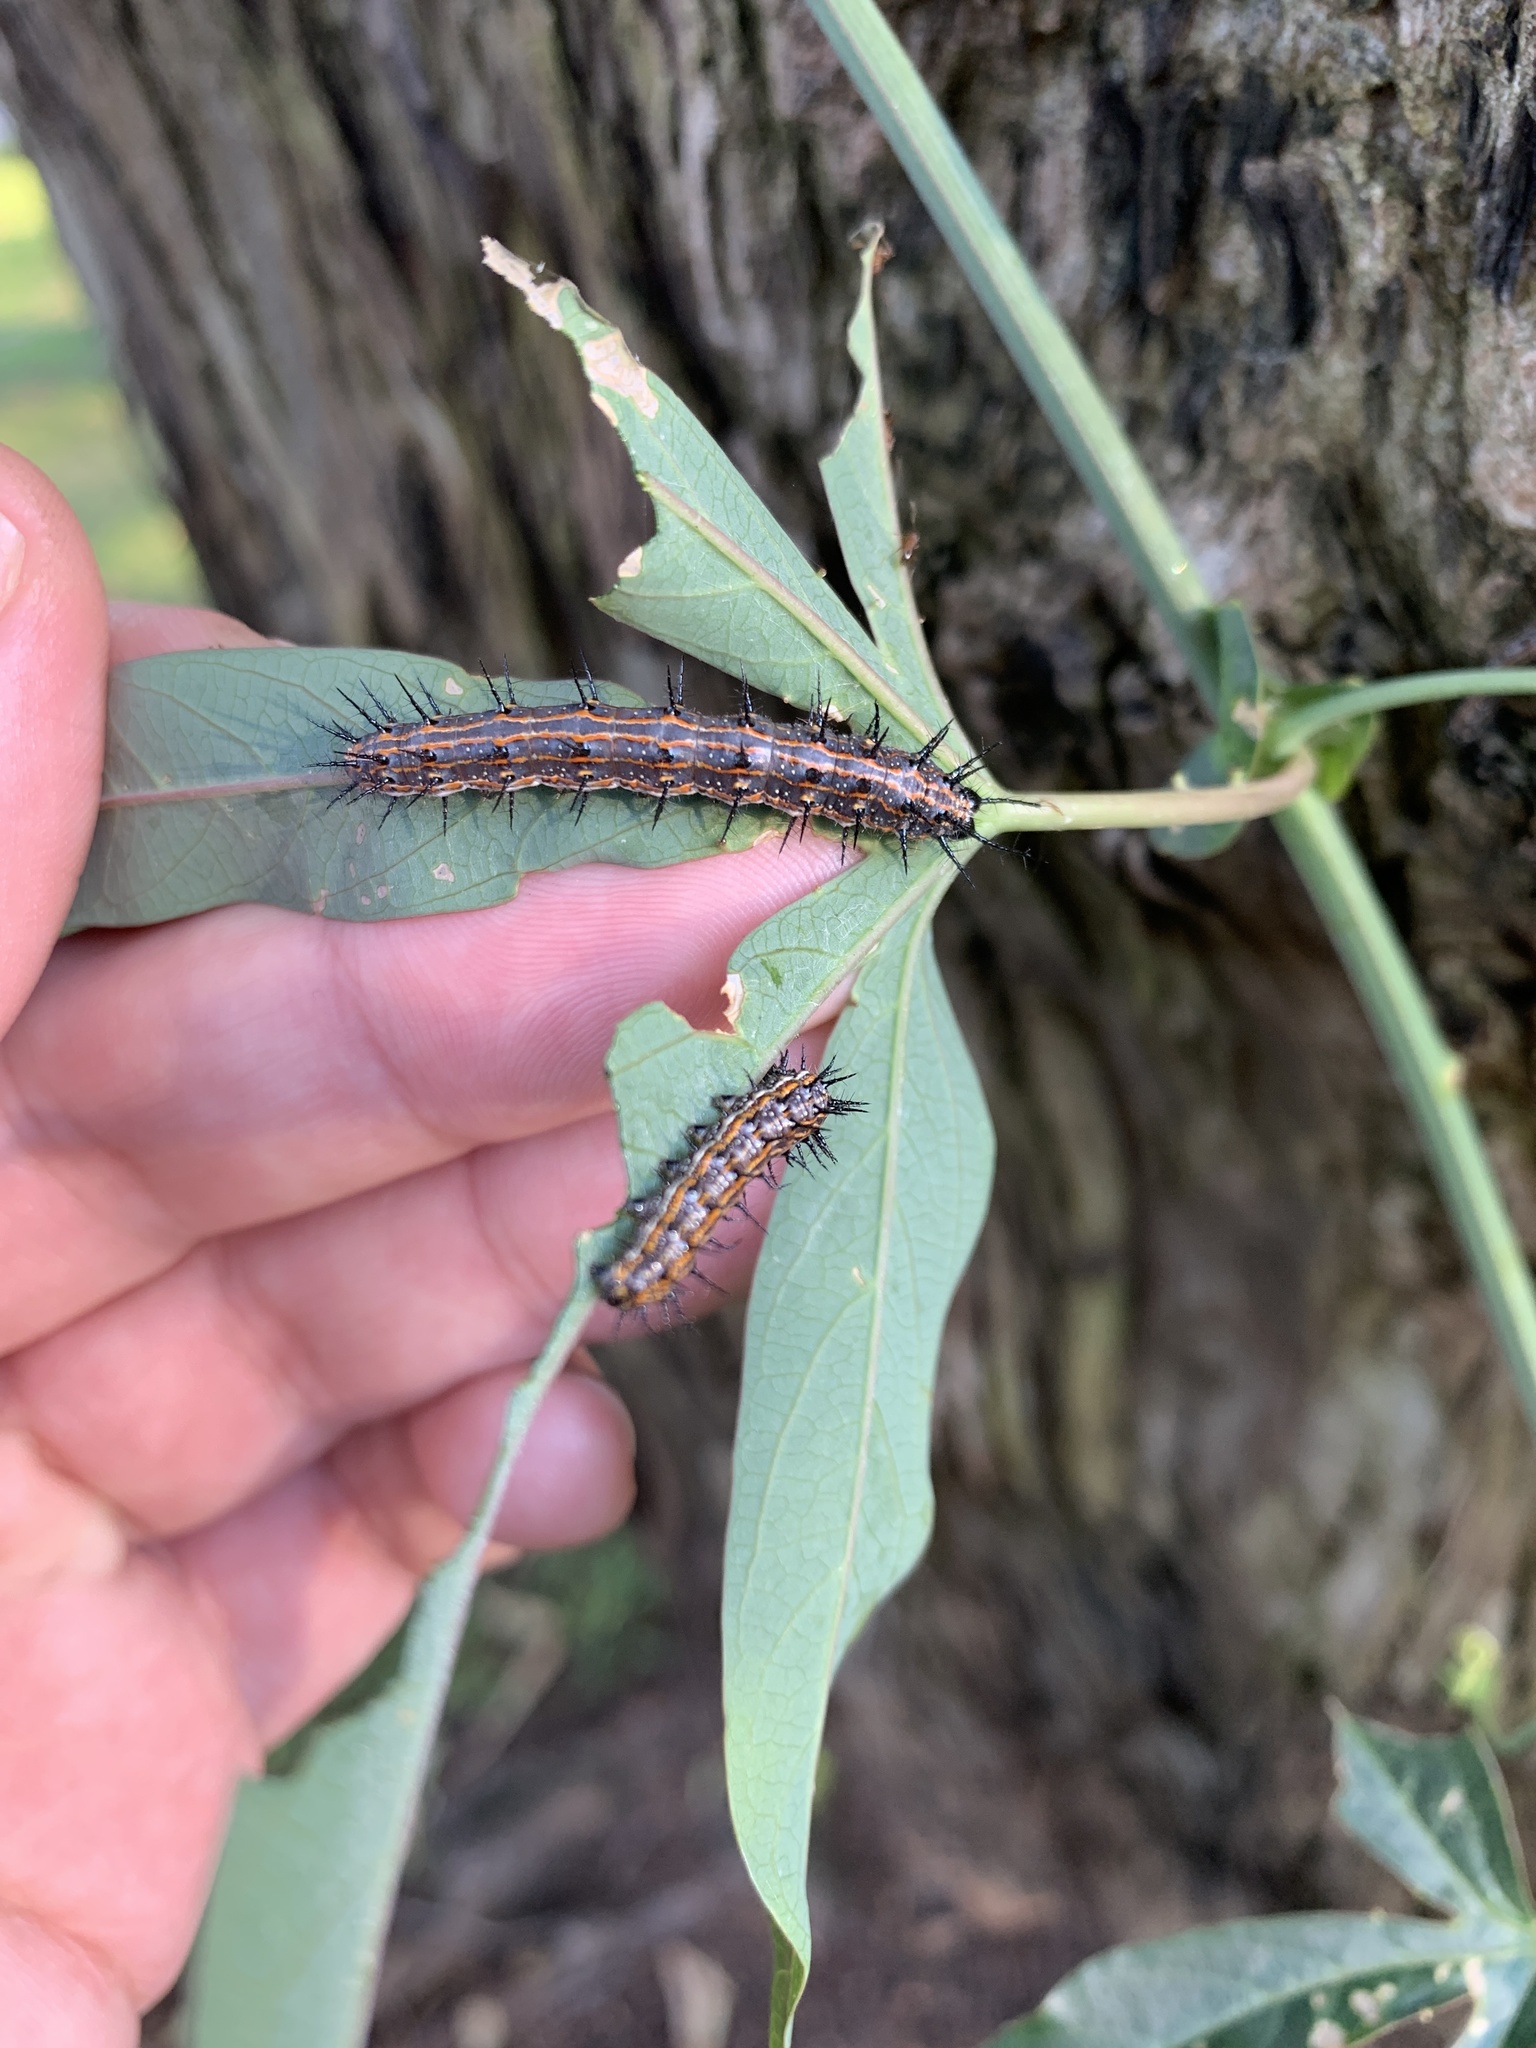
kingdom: Animalia
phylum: Arthropoda
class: Insecta
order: Lepidoptera
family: Nymphalidae
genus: Dione
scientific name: Dione vanillae
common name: Gulf fritillary
